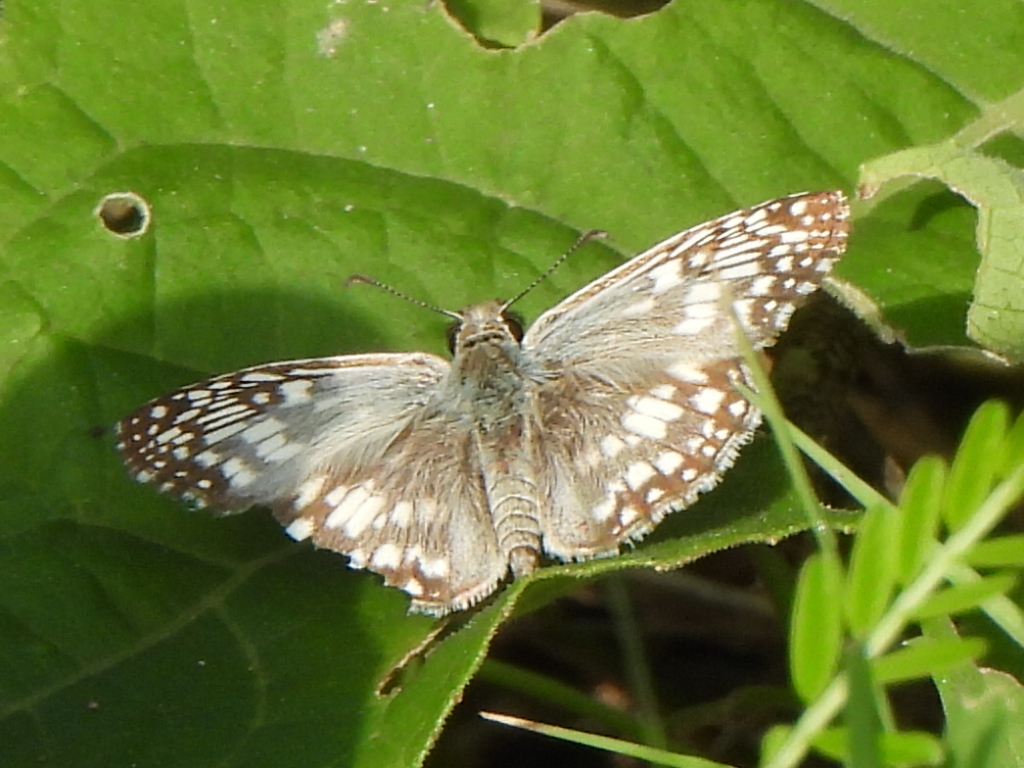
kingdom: Animalia
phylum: Arthropoda
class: Insecta
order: Lepidoptera
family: Hesperiidae
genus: Pyrgus
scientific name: Pyrgus oileus
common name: Tropical checkered-skipper
